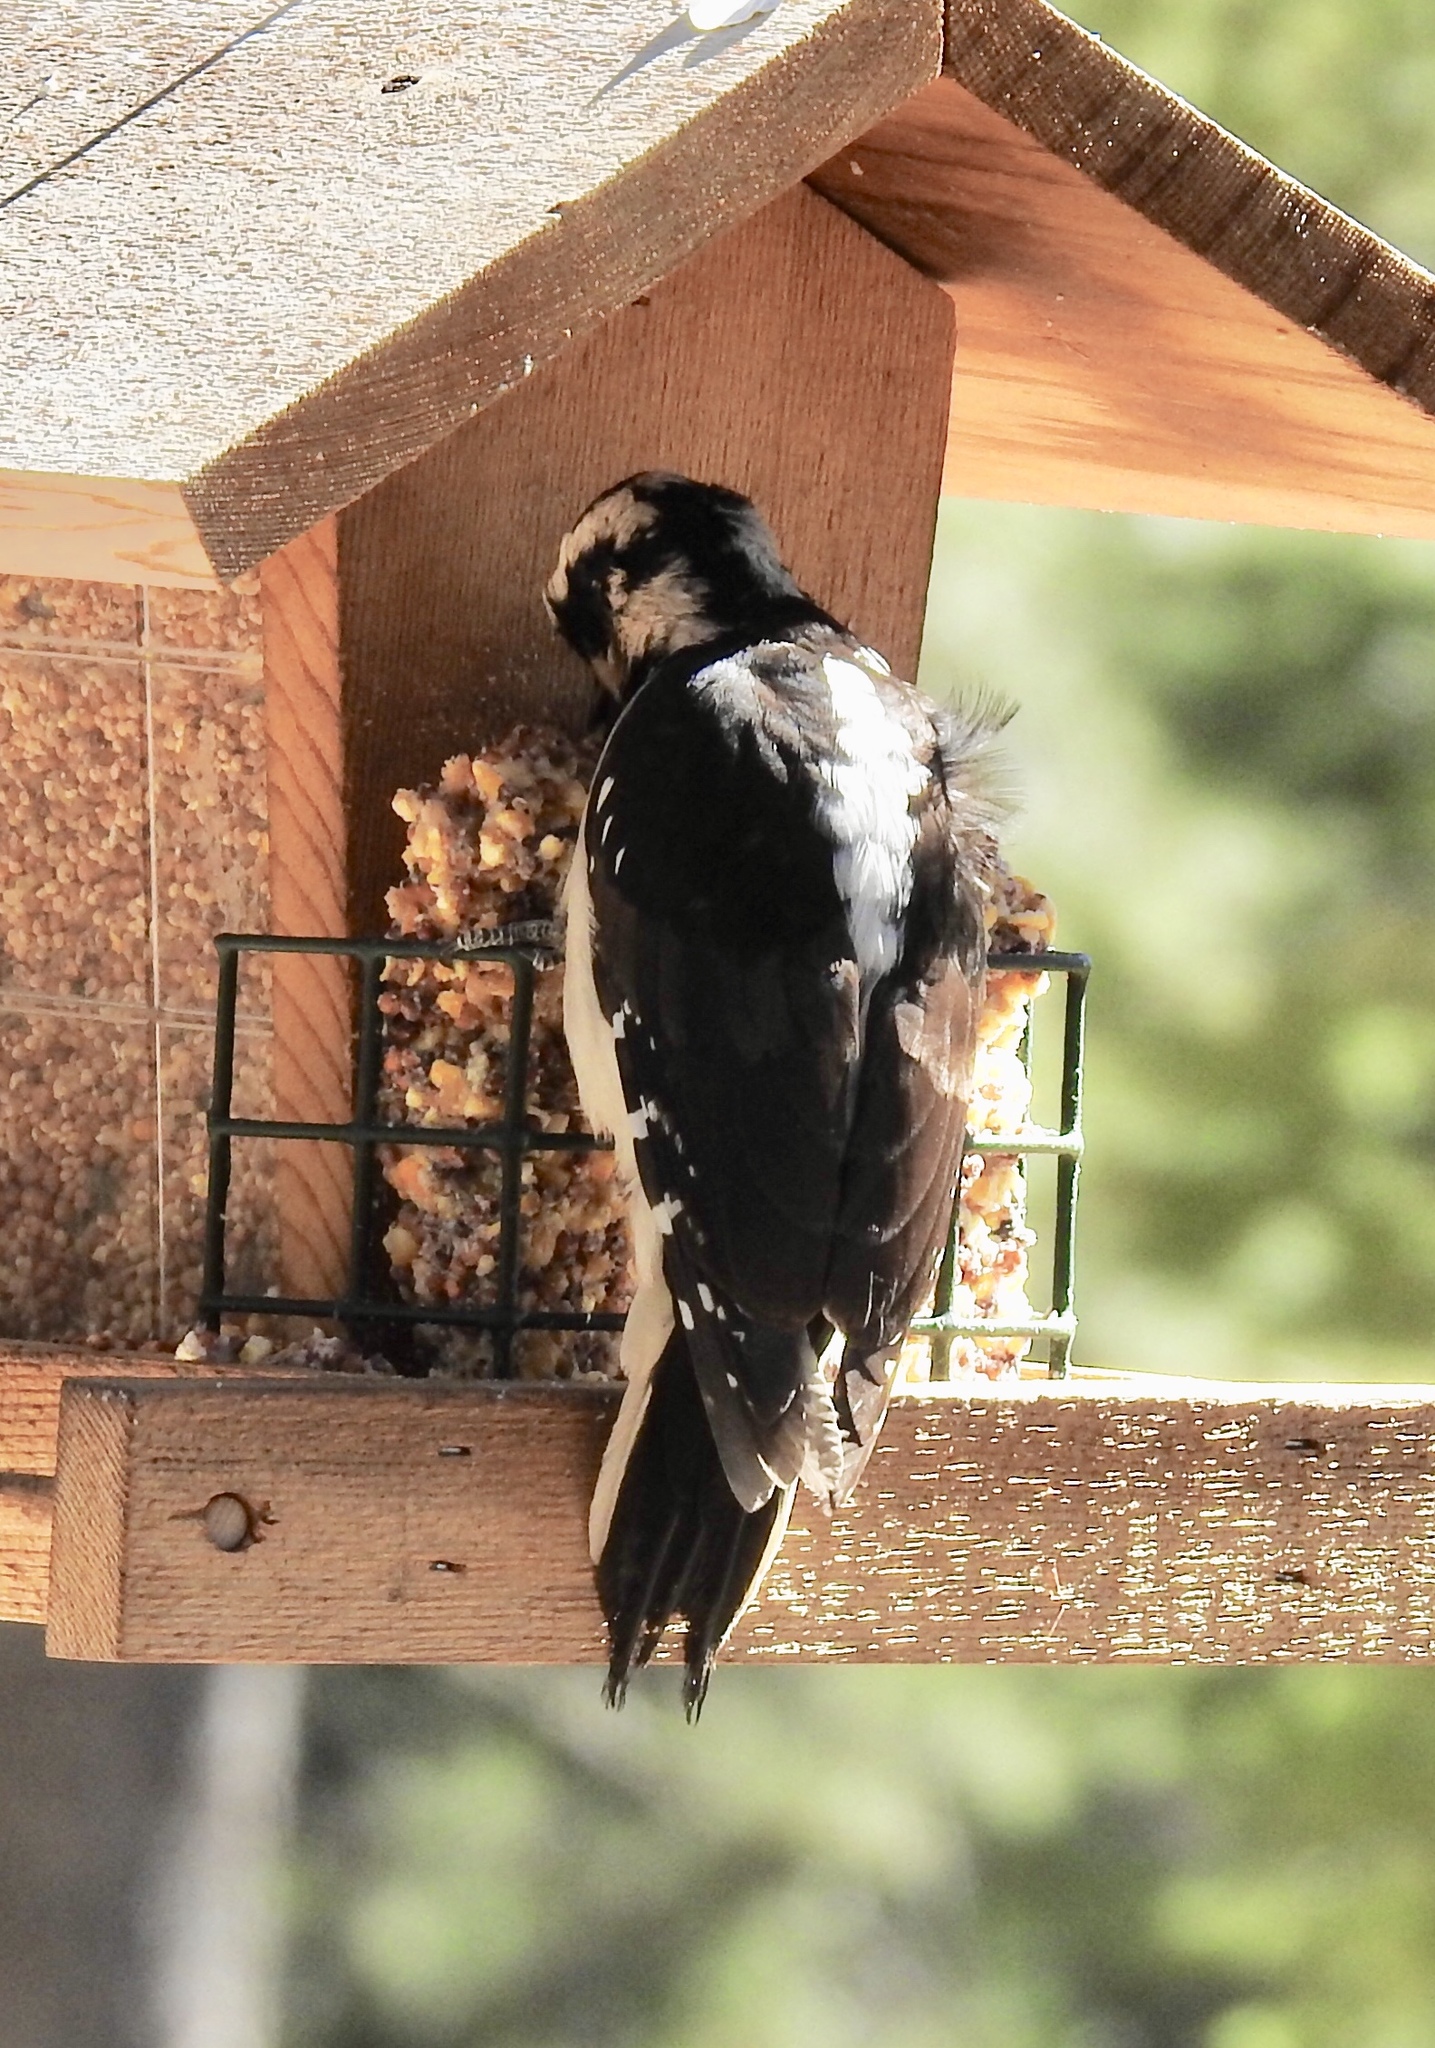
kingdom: Animalia
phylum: Chordata
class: Aves
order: Piciformes
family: Picidae
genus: Leuconotopicus
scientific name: Leuconotopicus villosus
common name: Hairy woodpecker
